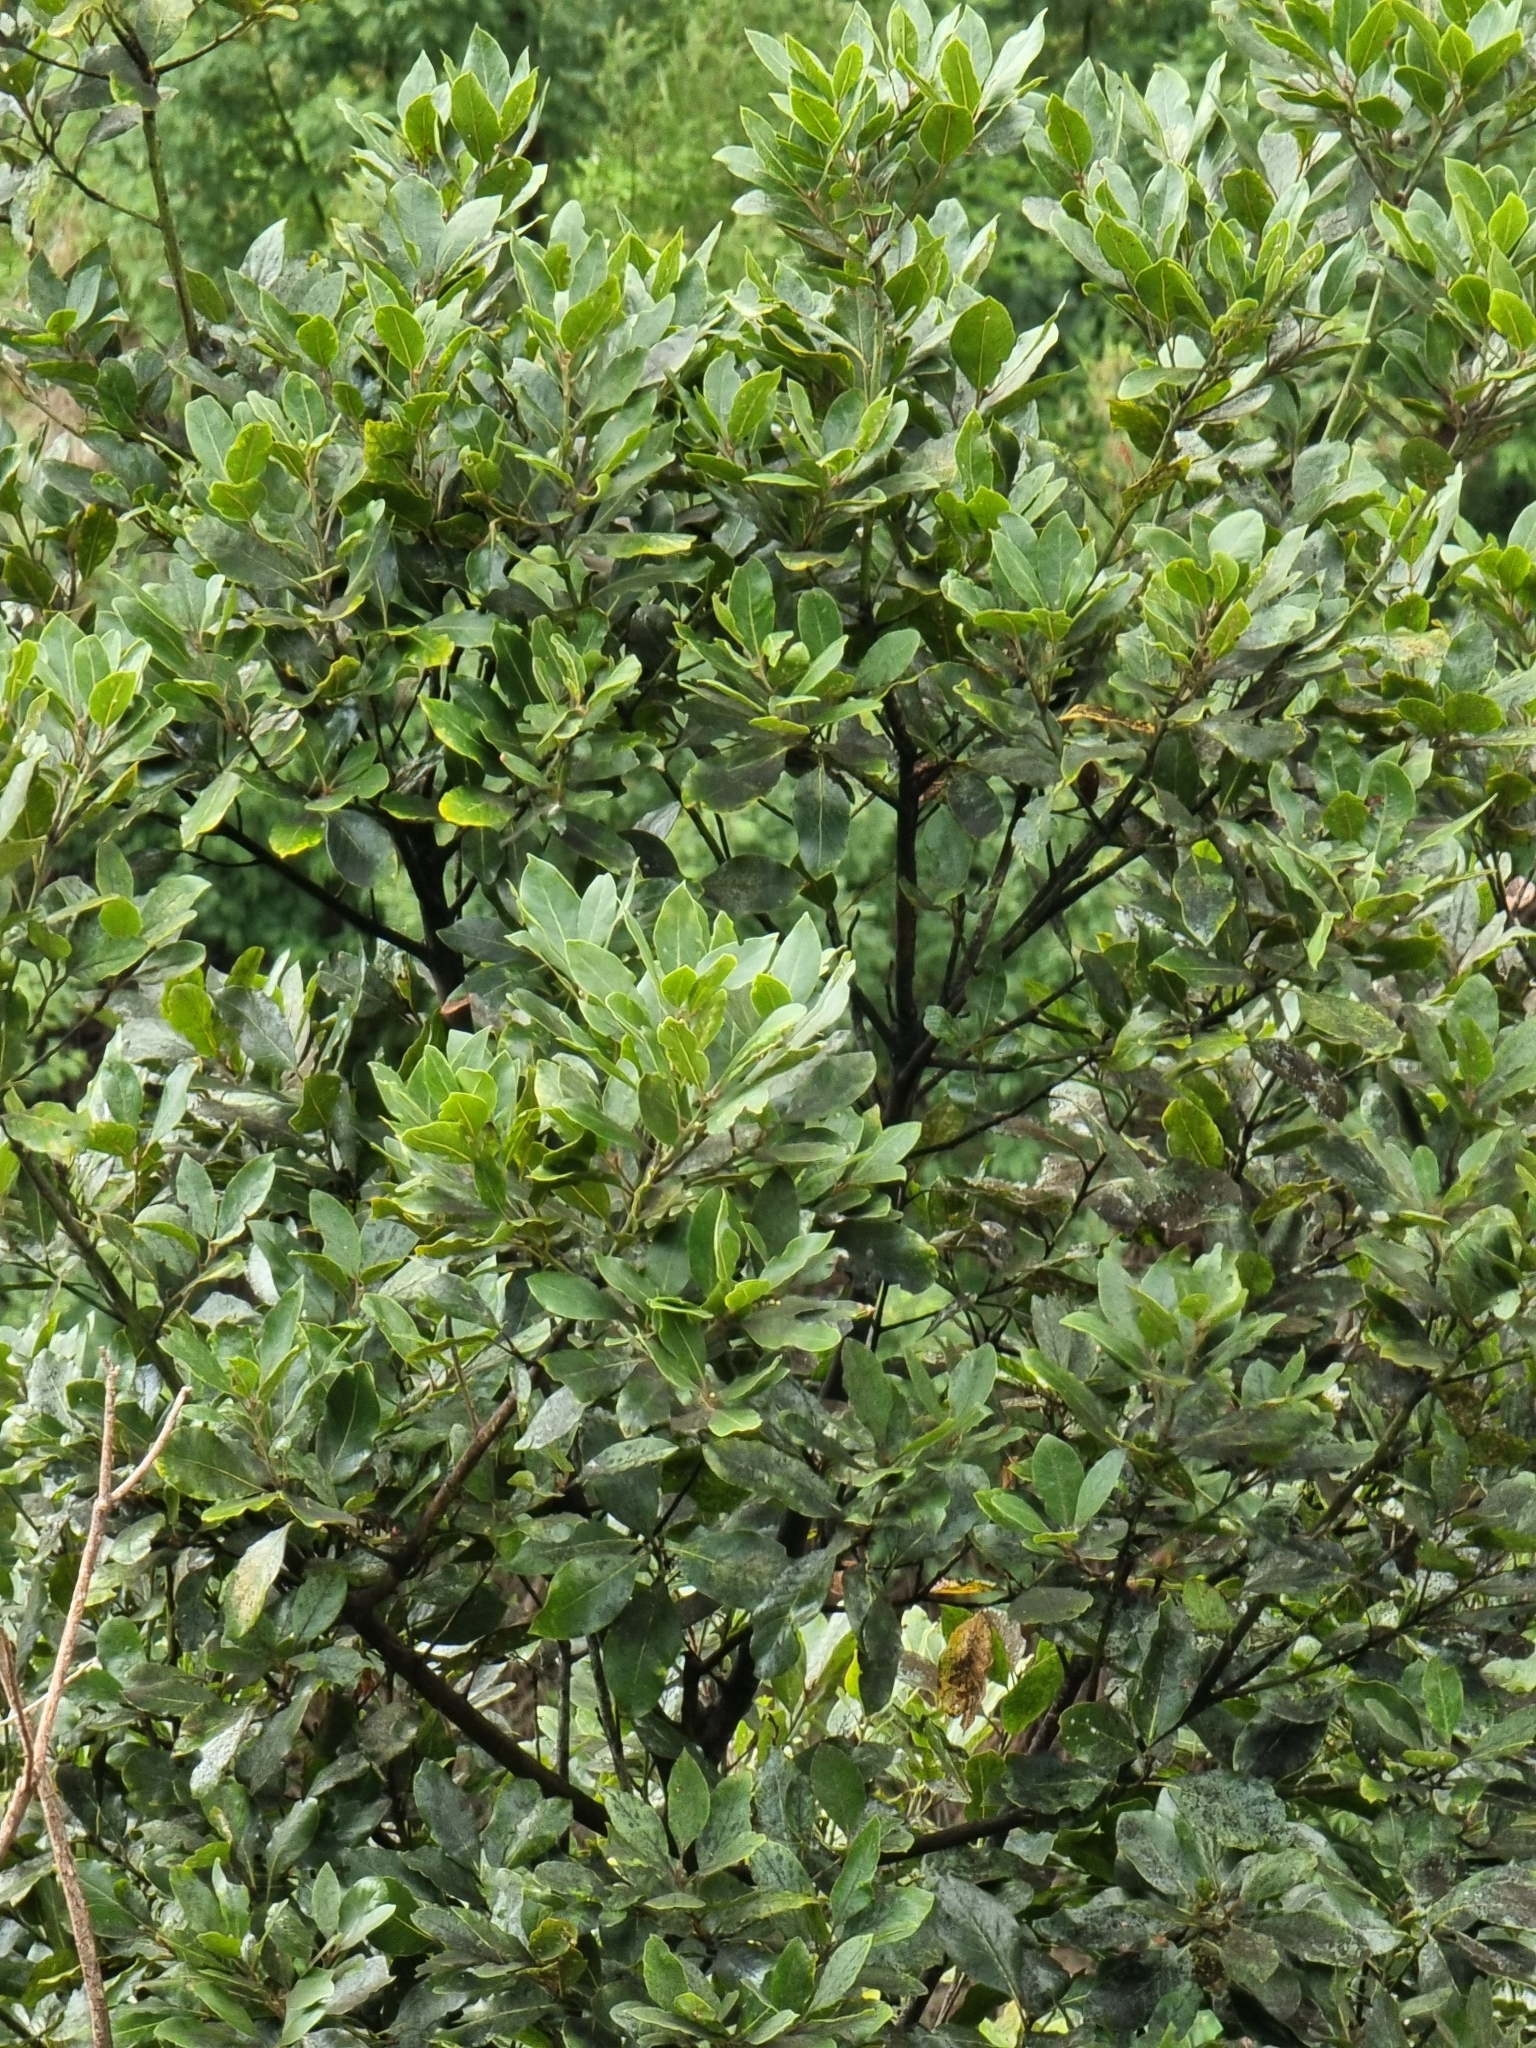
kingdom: Plantae
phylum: Tracheophyta
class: Magnoliopsida
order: Laurales
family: Lauraceae
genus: Laurus
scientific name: Laurus novocanariensis
